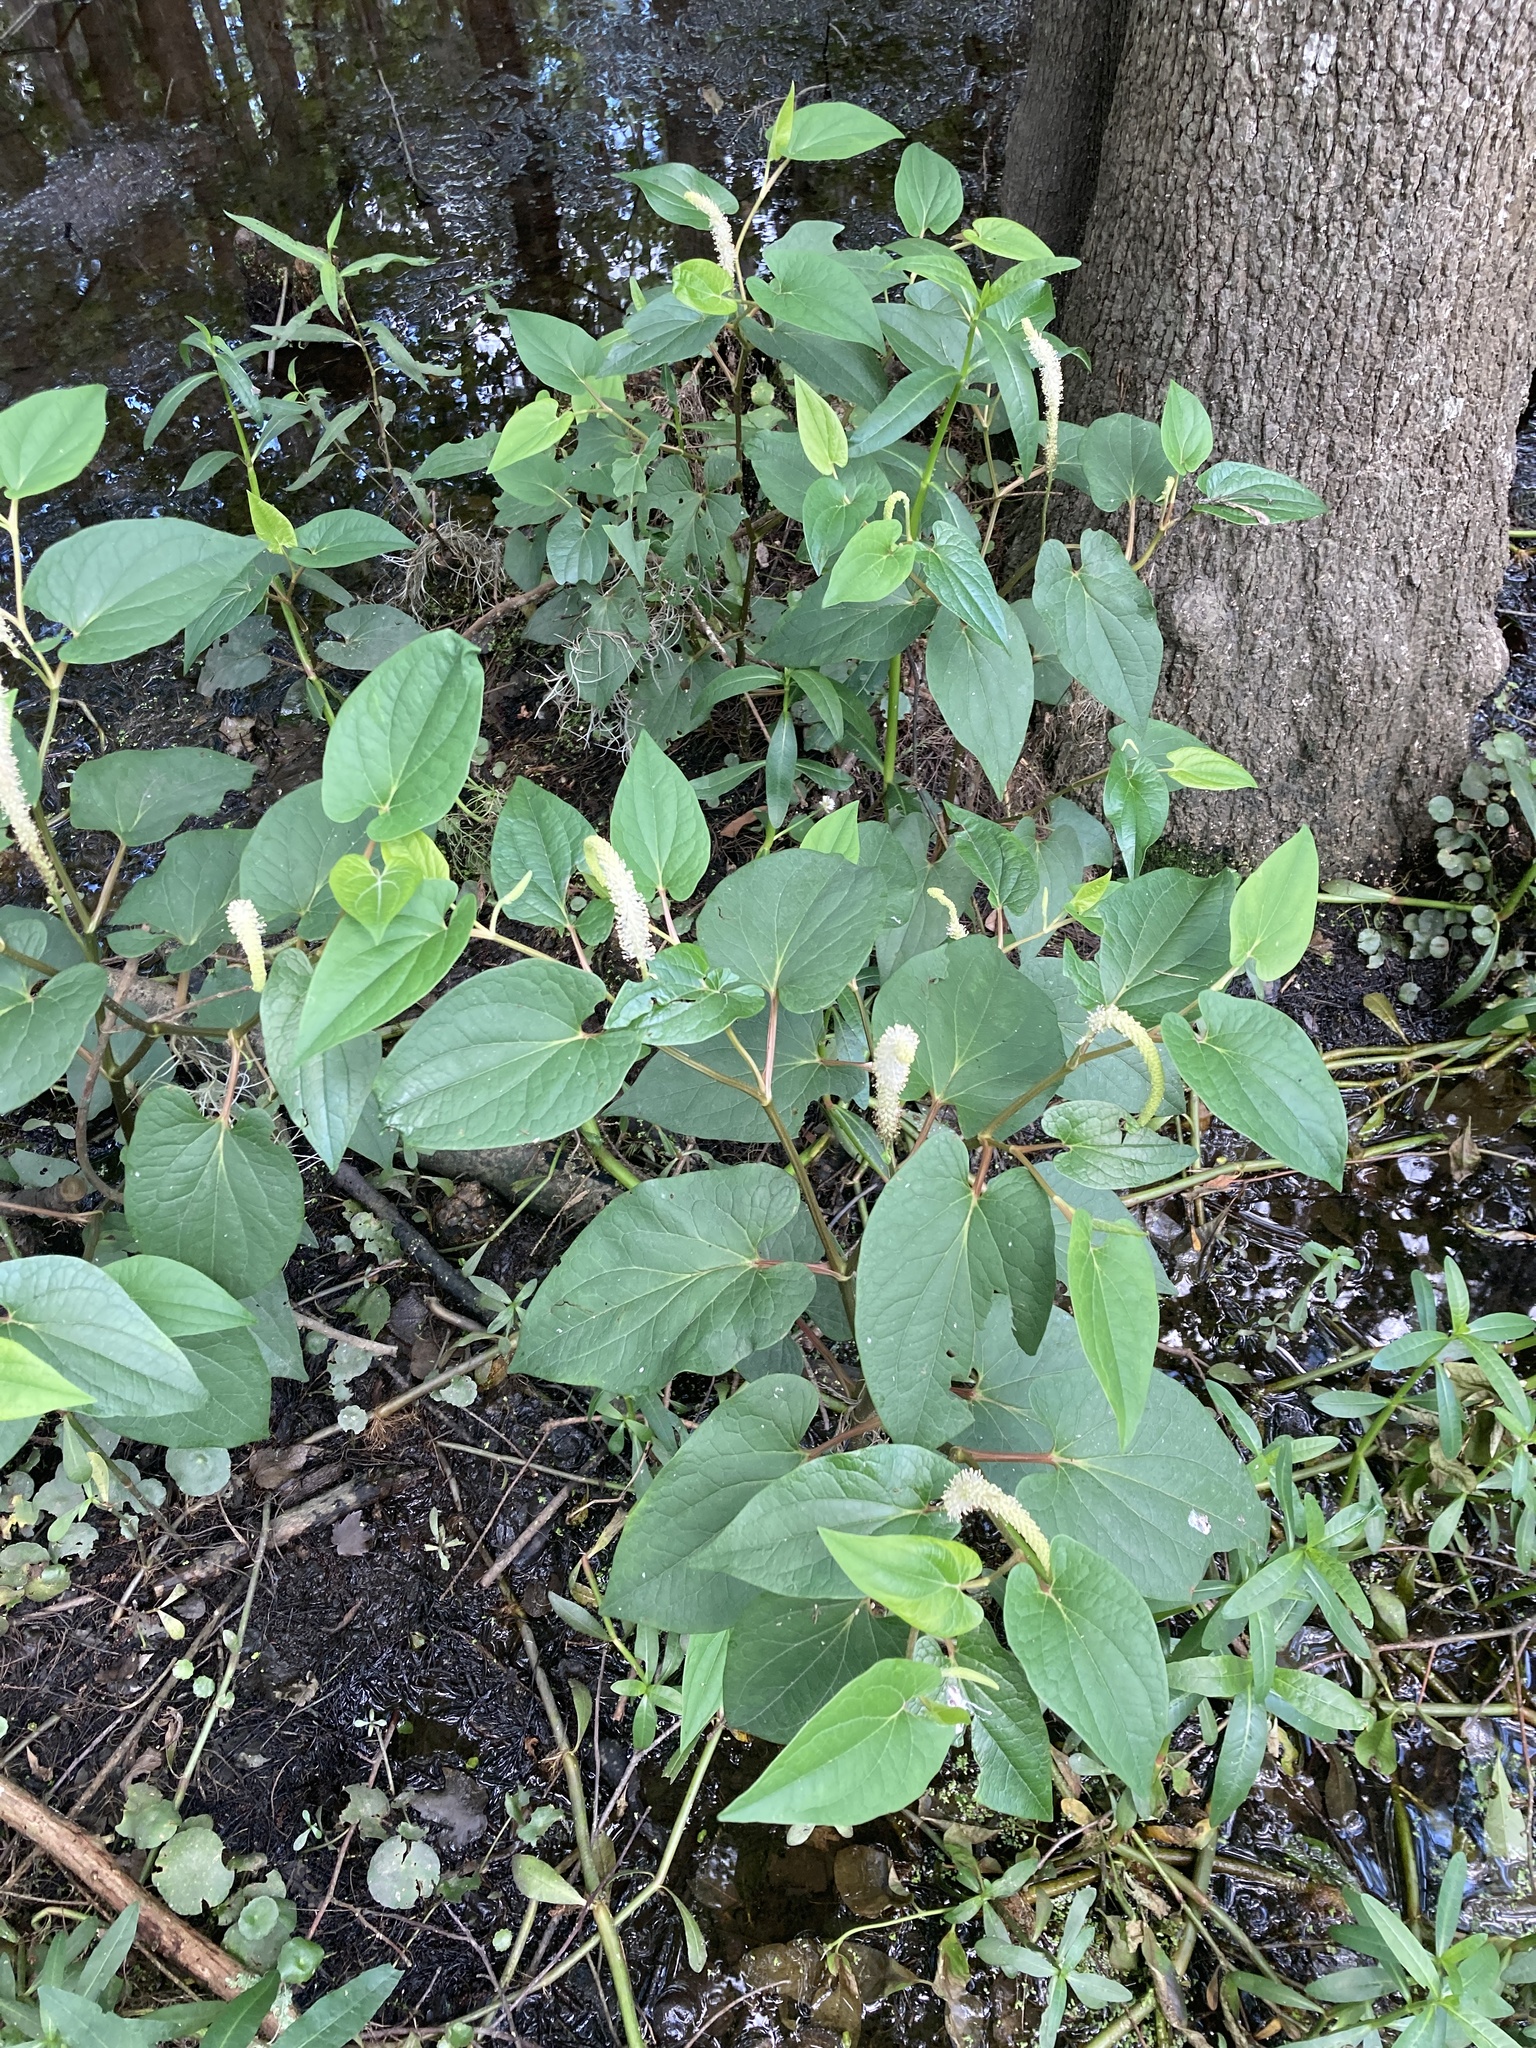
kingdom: Plantae
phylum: Tracheophyta
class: Magnoliopsida
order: Piperales
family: Saururaceae
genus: Saururus
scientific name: Saururus cernuus
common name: Lizard's-tail
